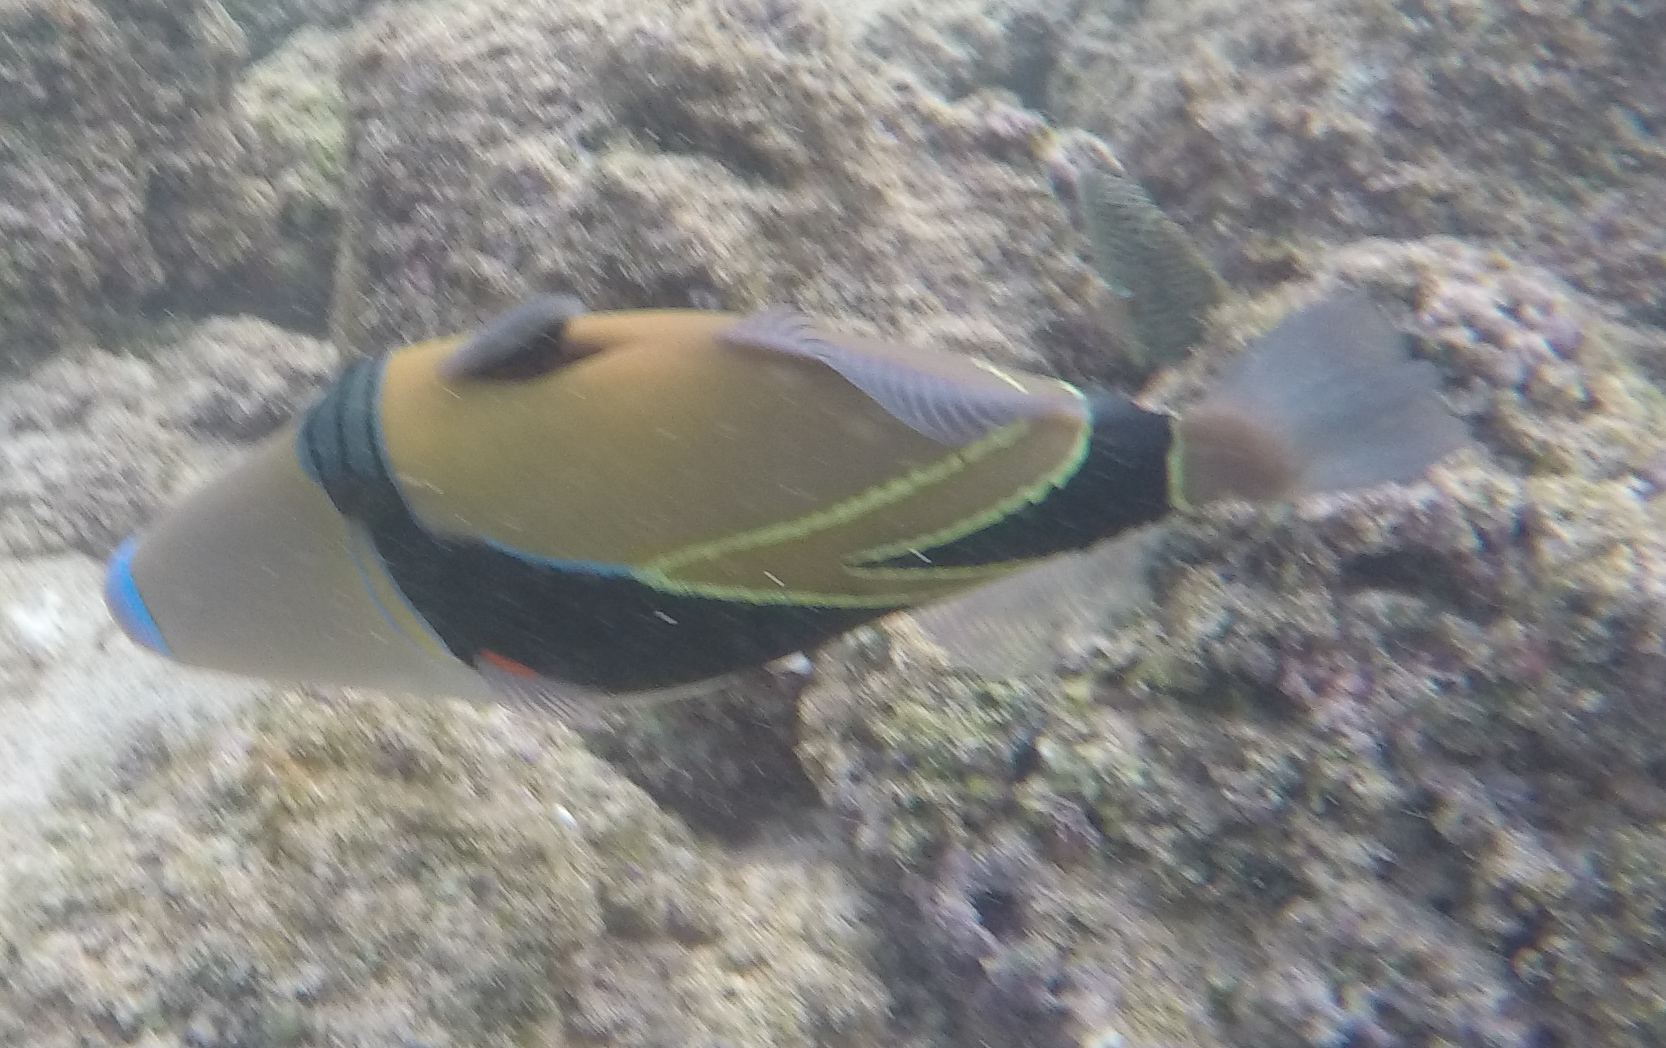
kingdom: Animalia
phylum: Chordata
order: Tetraodontiformes
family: Balistidae
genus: Rhinecanthus
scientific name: Rhinecanthus rectangulus
